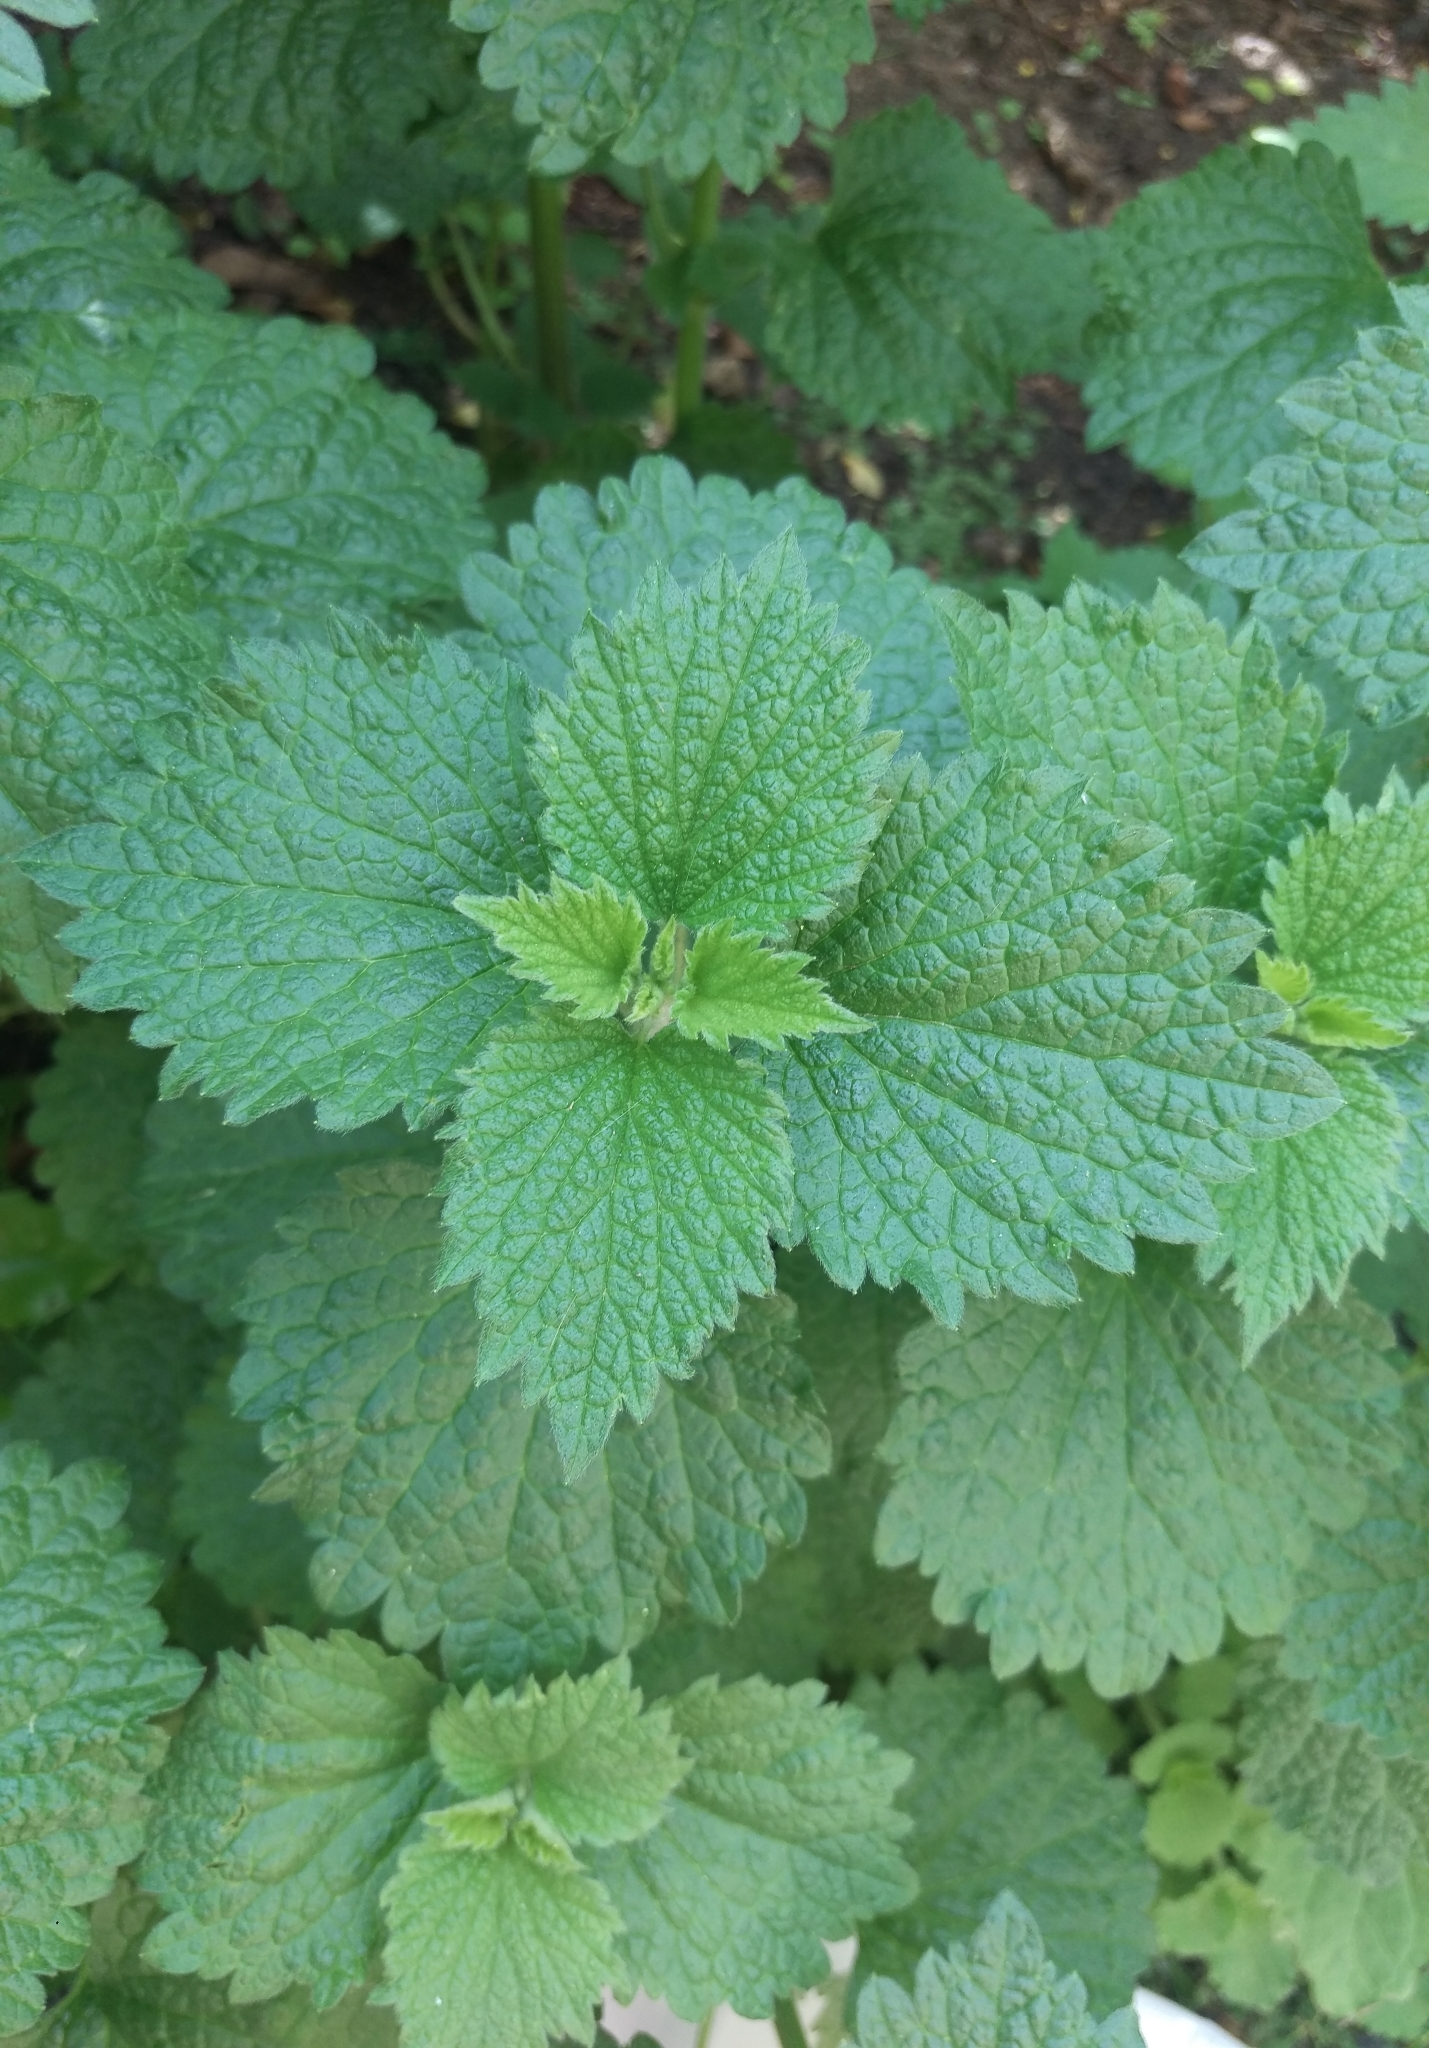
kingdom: Plantae
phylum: Tracheophyta
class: Magnoliopsida
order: Lamiales
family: Lamiaceae
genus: Ballota
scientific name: Ballota nigra
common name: Black horehound
